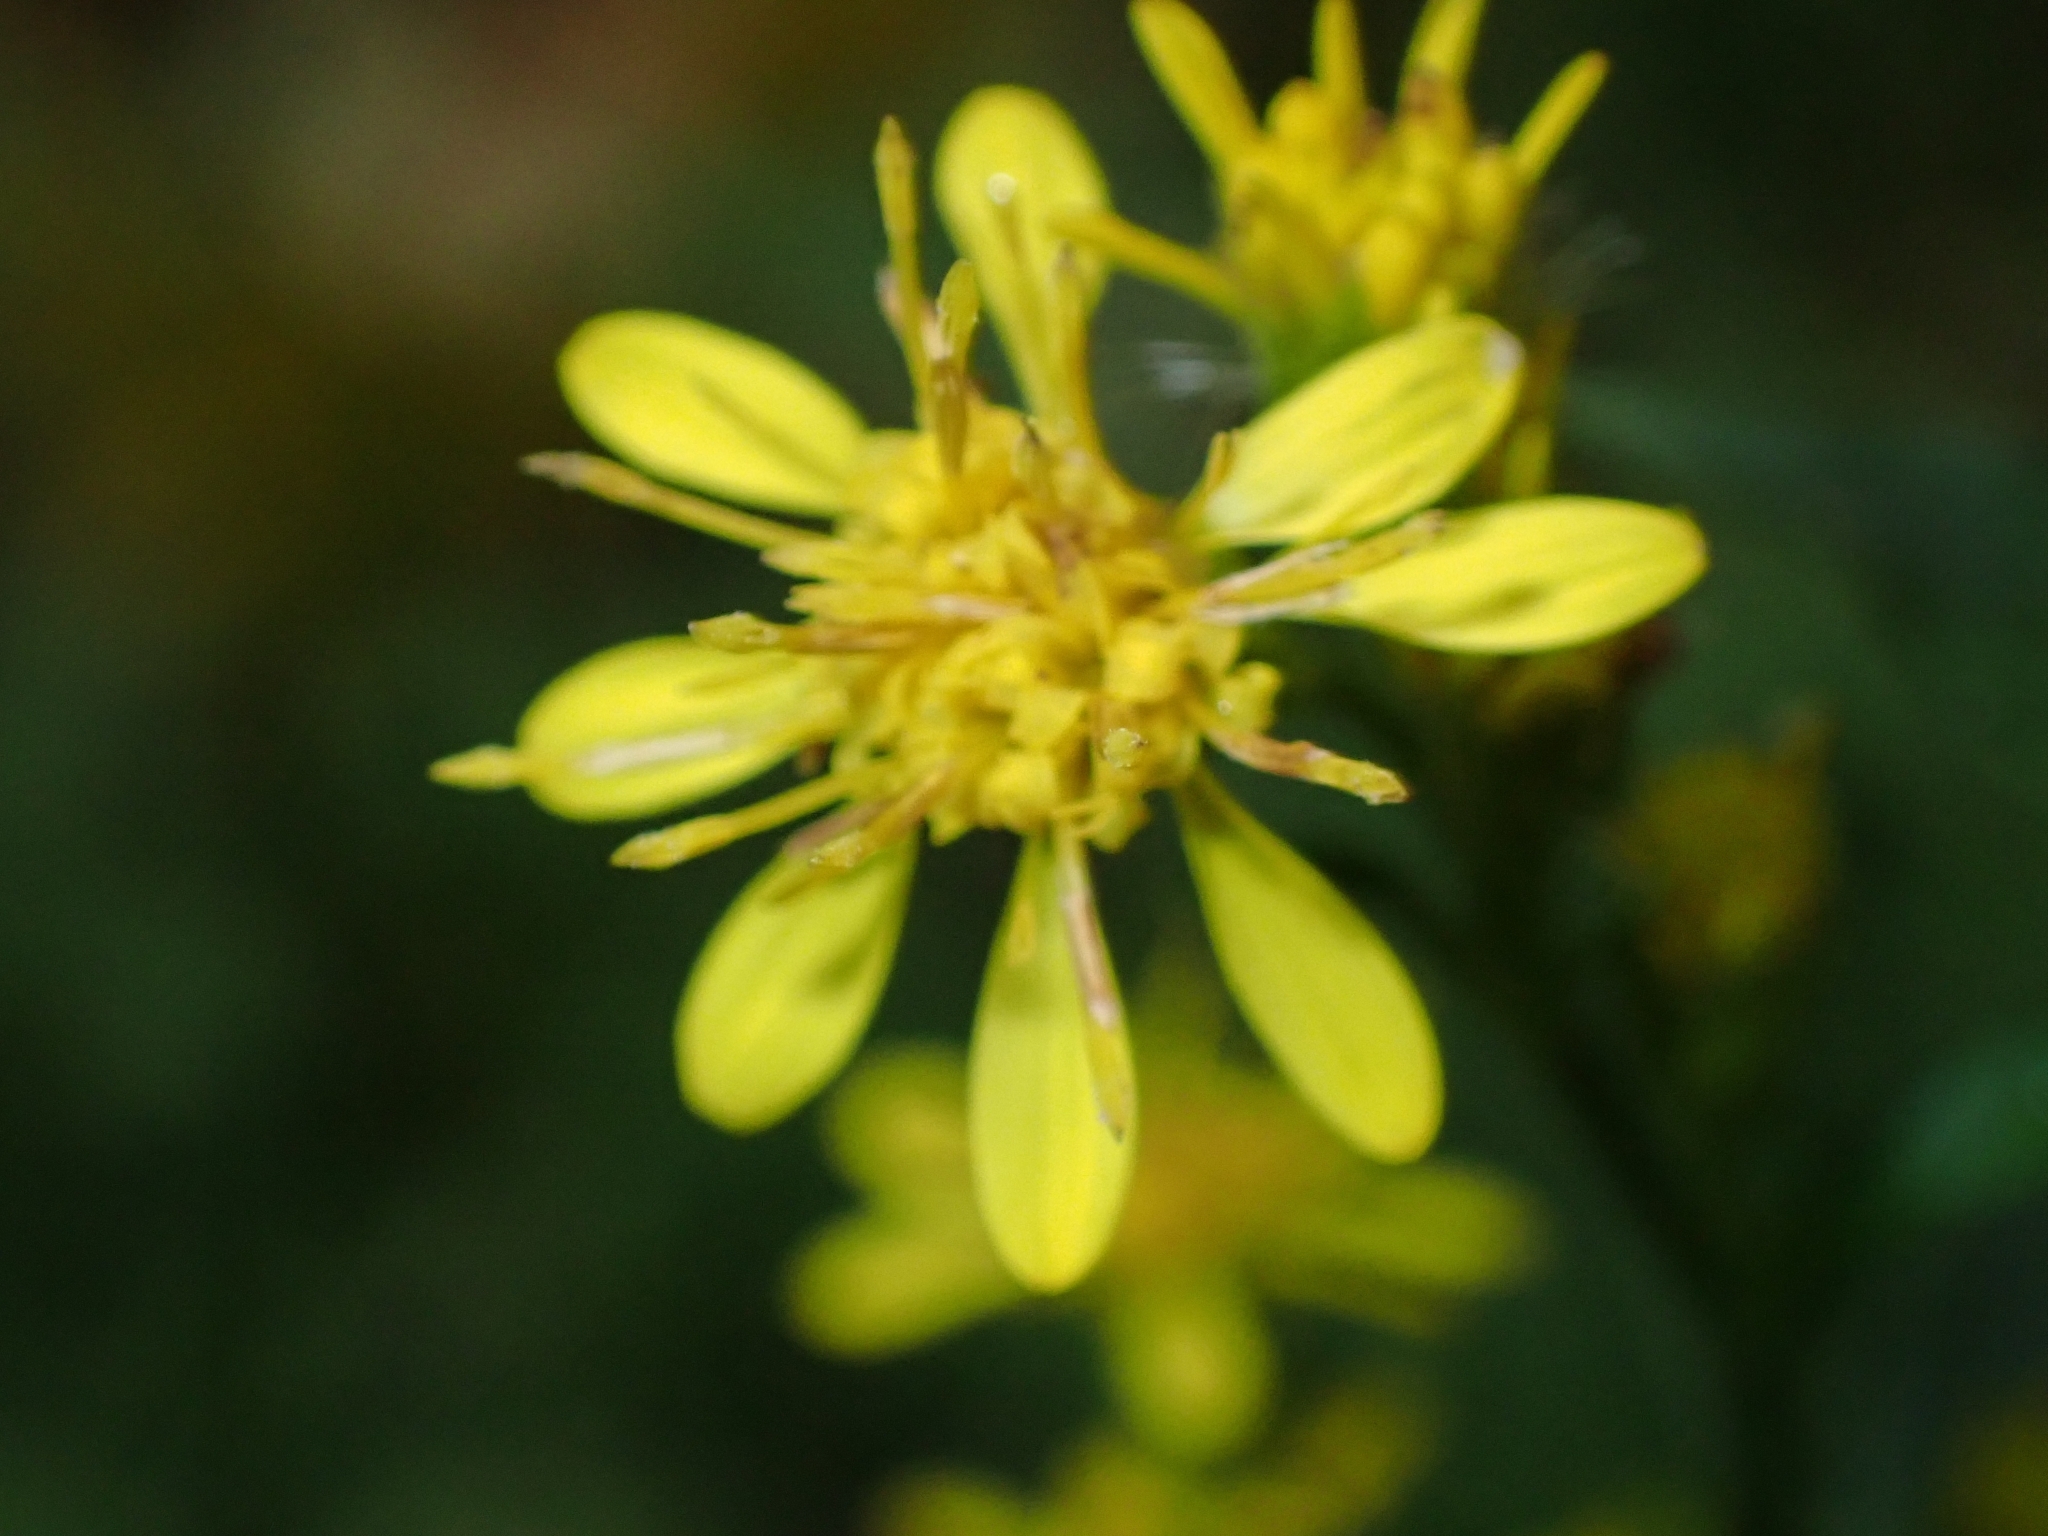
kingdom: Plantae
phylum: Tracheophyta
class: Magnoliopsida
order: Asterales
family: Asteraceae
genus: Solidago
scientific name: Solidago virgaurea
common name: Goldenrod
